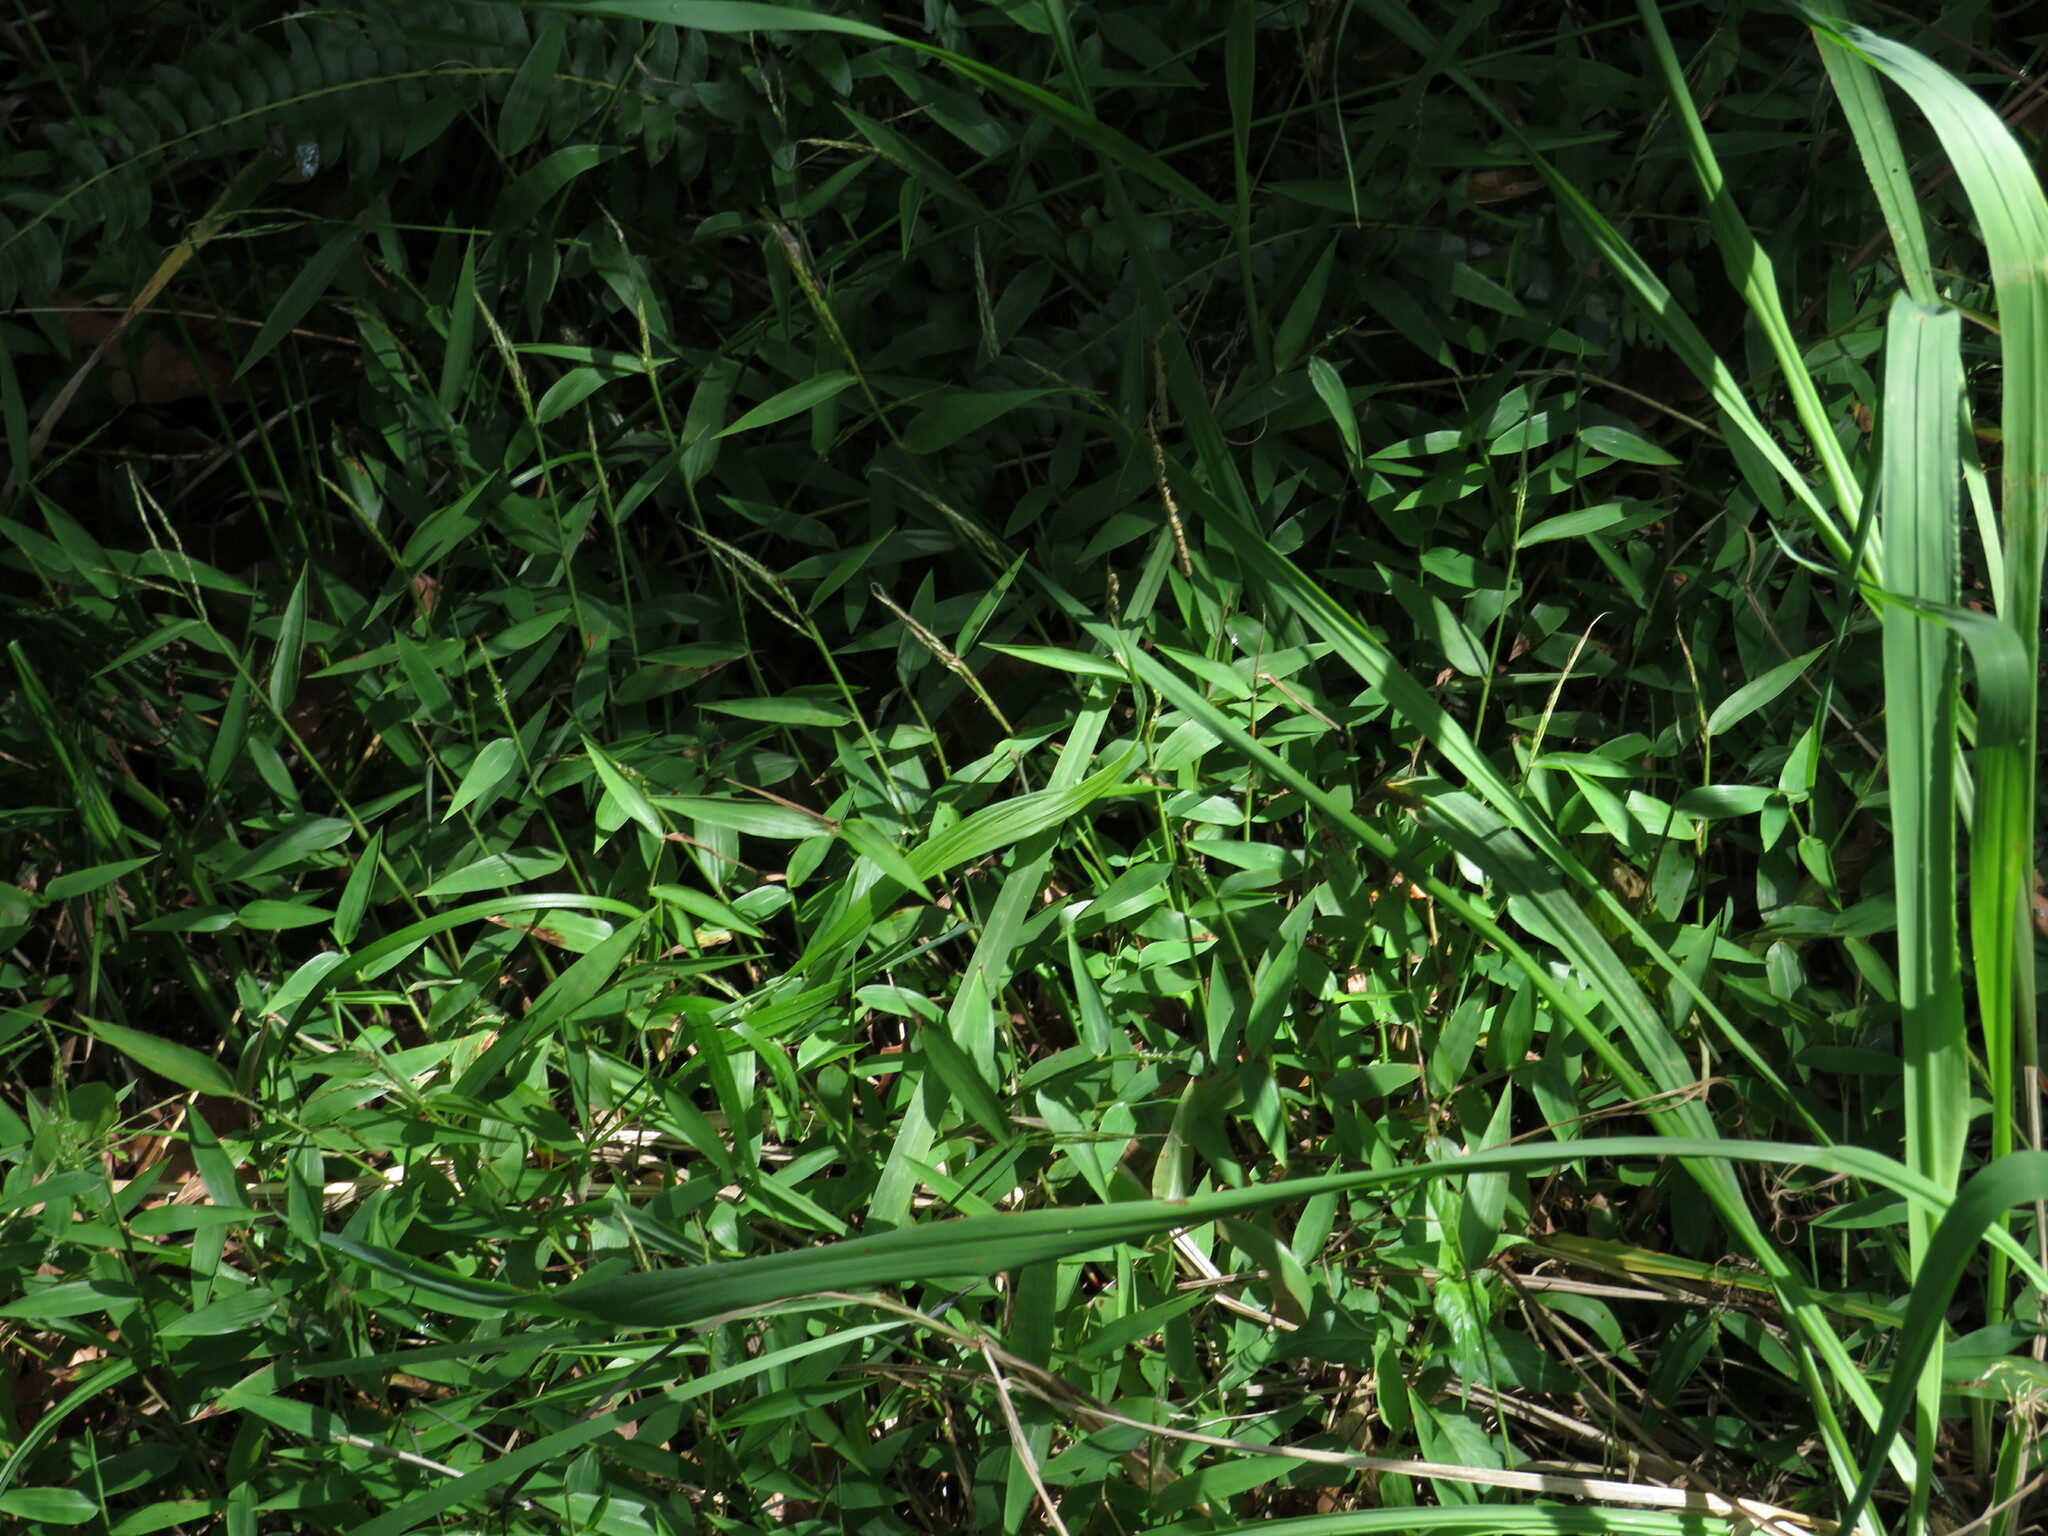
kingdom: Plantae
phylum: Tracheophyta
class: Liliopsida
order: Poales
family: Poaceae
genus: Oplismenus
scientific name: Oplismenus hirtellus
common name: Basketgrass
